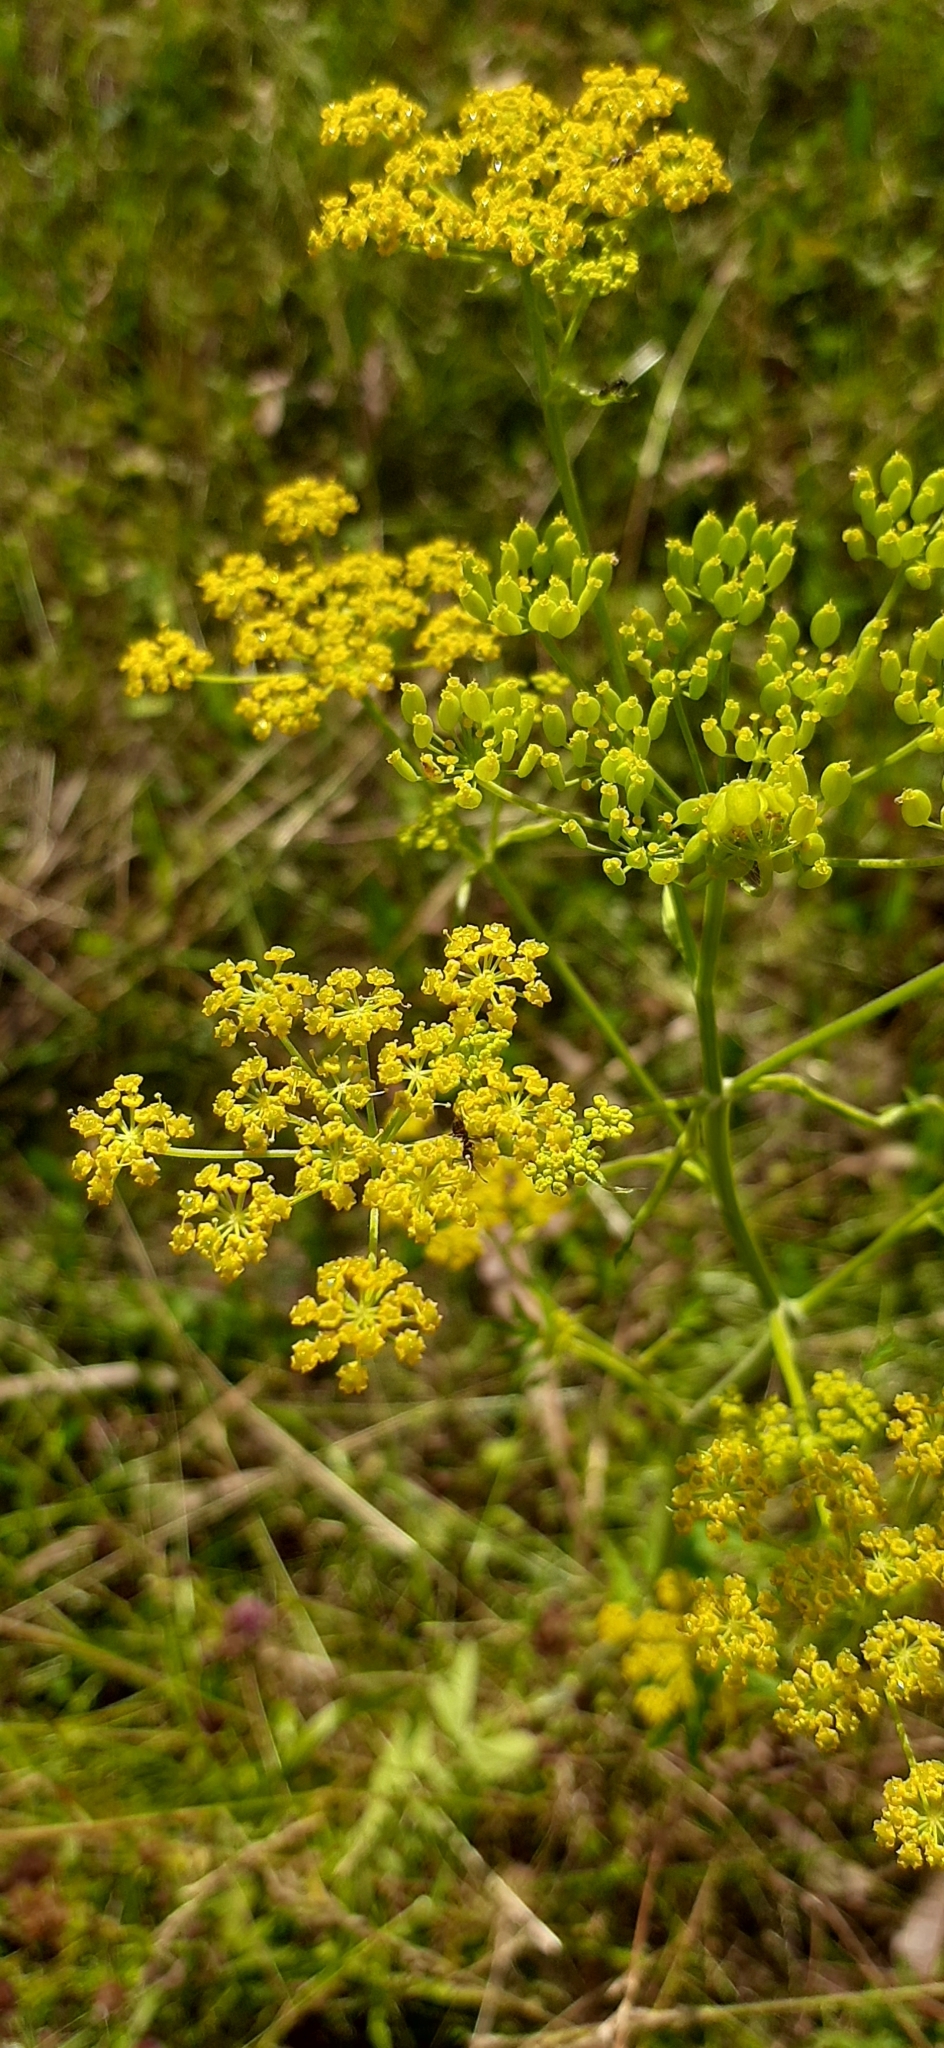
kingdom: Plantae
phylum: Tracheophyta
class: Magnoliopsida
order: Apiales
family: Apiaceae
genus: Pastinaca
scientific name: Pastinaca sativa
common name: Wild parsnip
